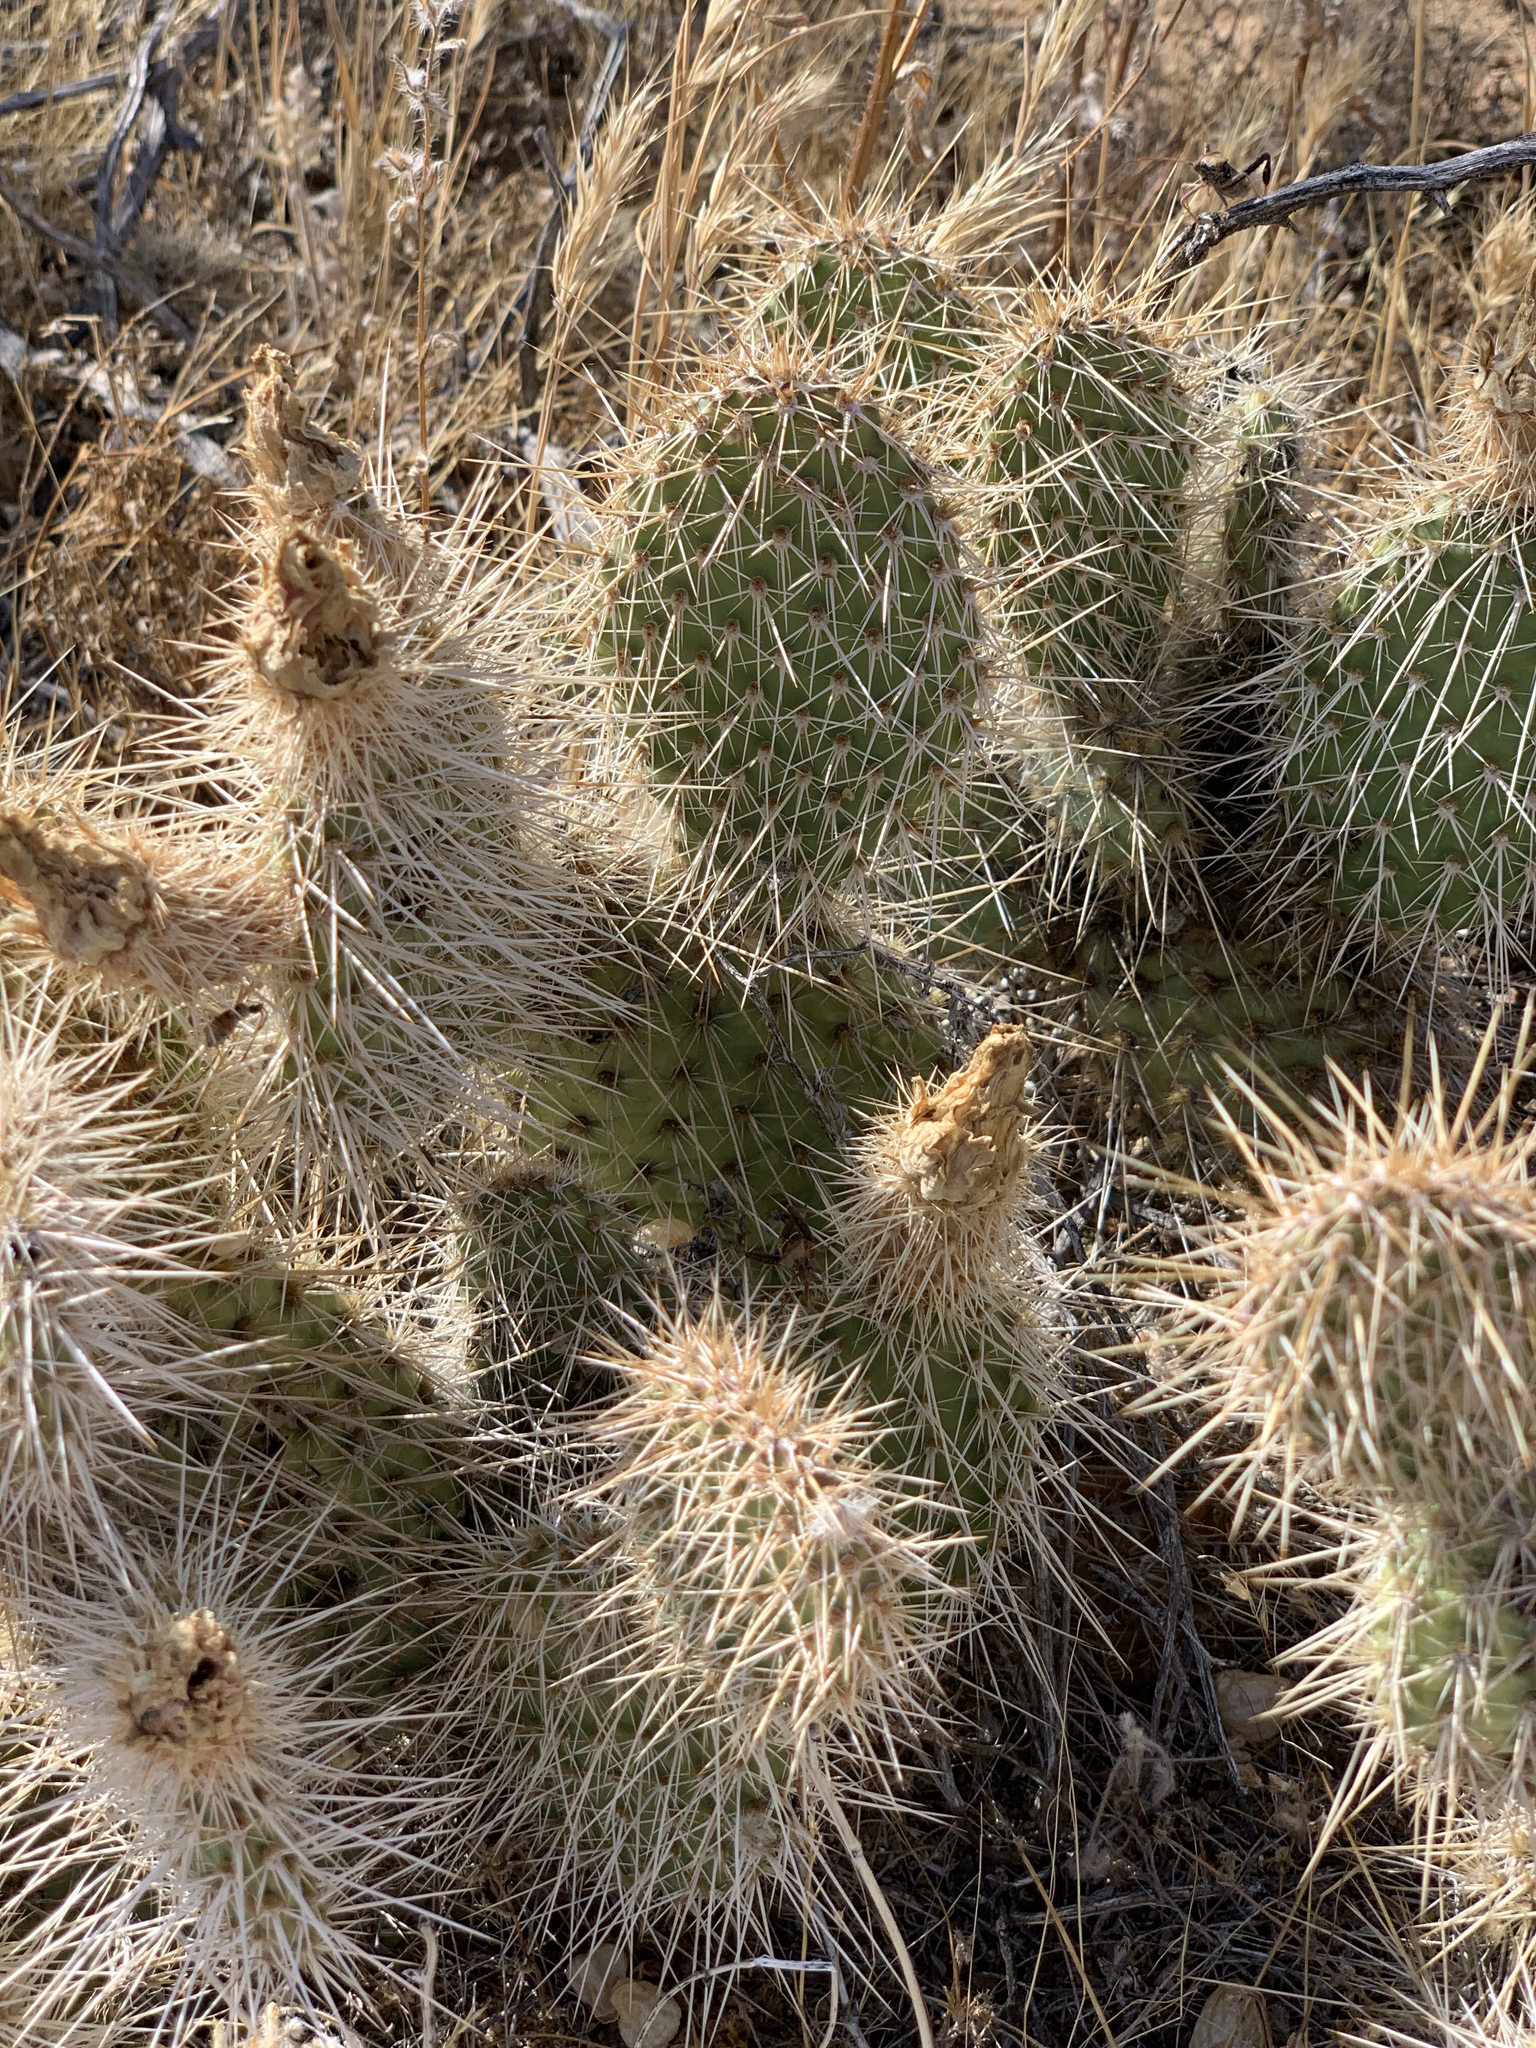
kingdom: Plantae
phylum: Tracheophyta
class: Magnoliopsida
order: Caryophyllales
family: Cactaceae
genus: Opuntia
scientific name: Opuntia polyacantha
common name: Plains prickly-pear
